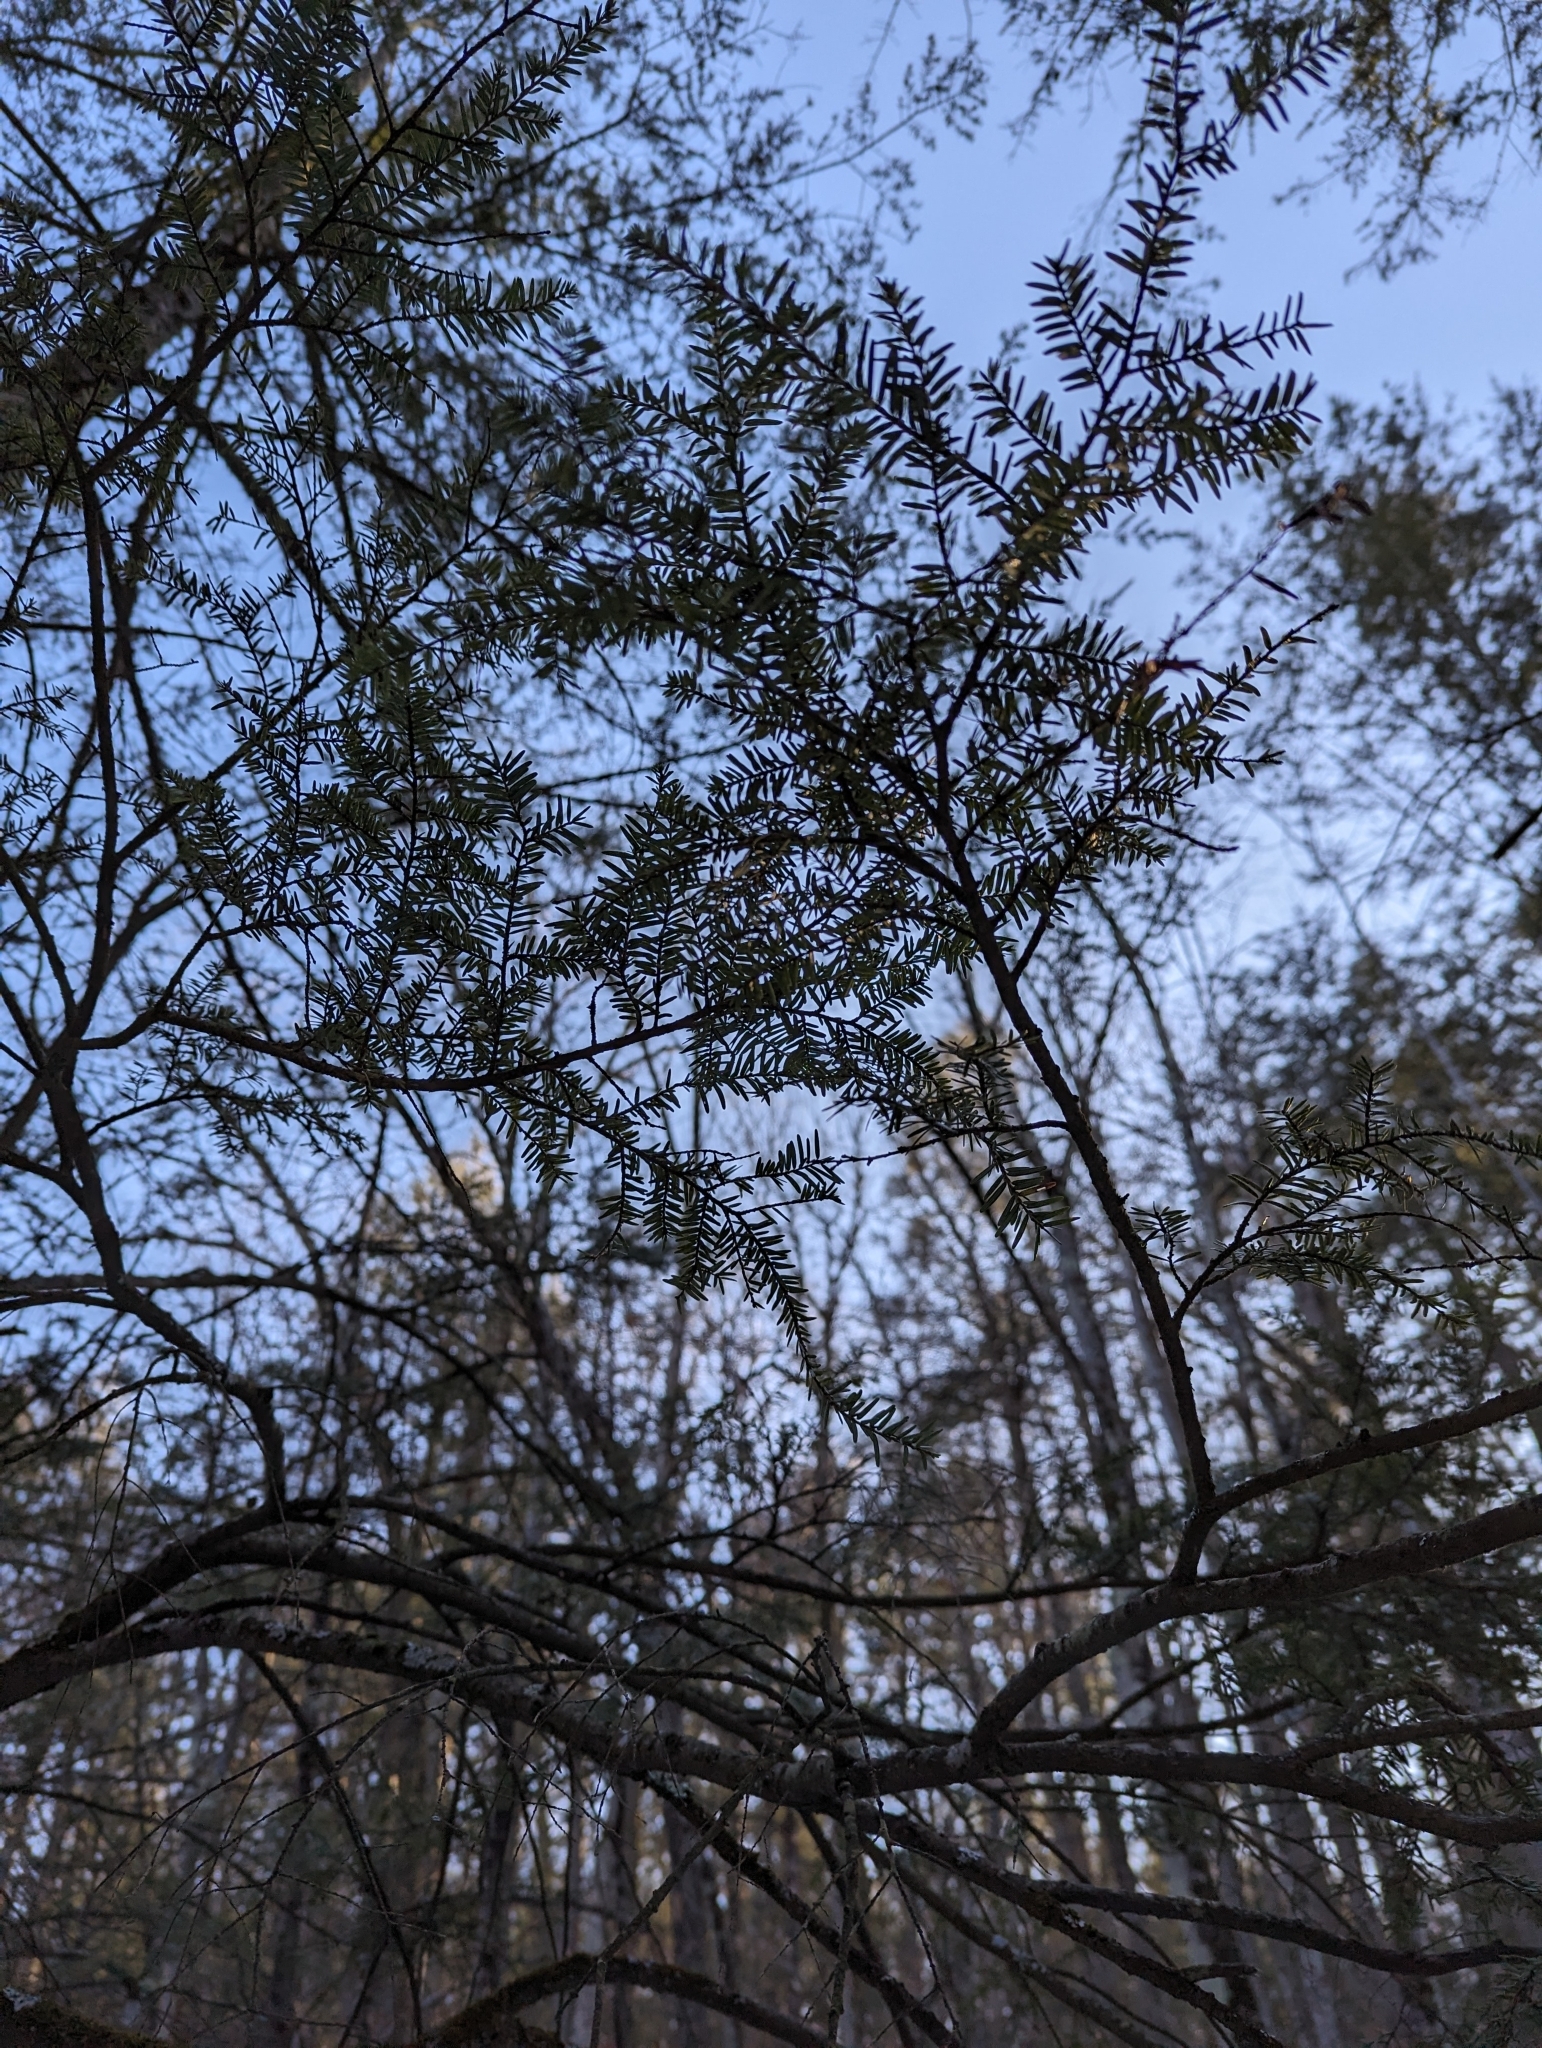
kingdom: Plantae
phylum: Tracheophyta
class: Pinopsida
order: Pinales
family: Pinaceae
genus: Tsuga
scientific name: Tsuga canadensis
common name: Eastern hemlock
